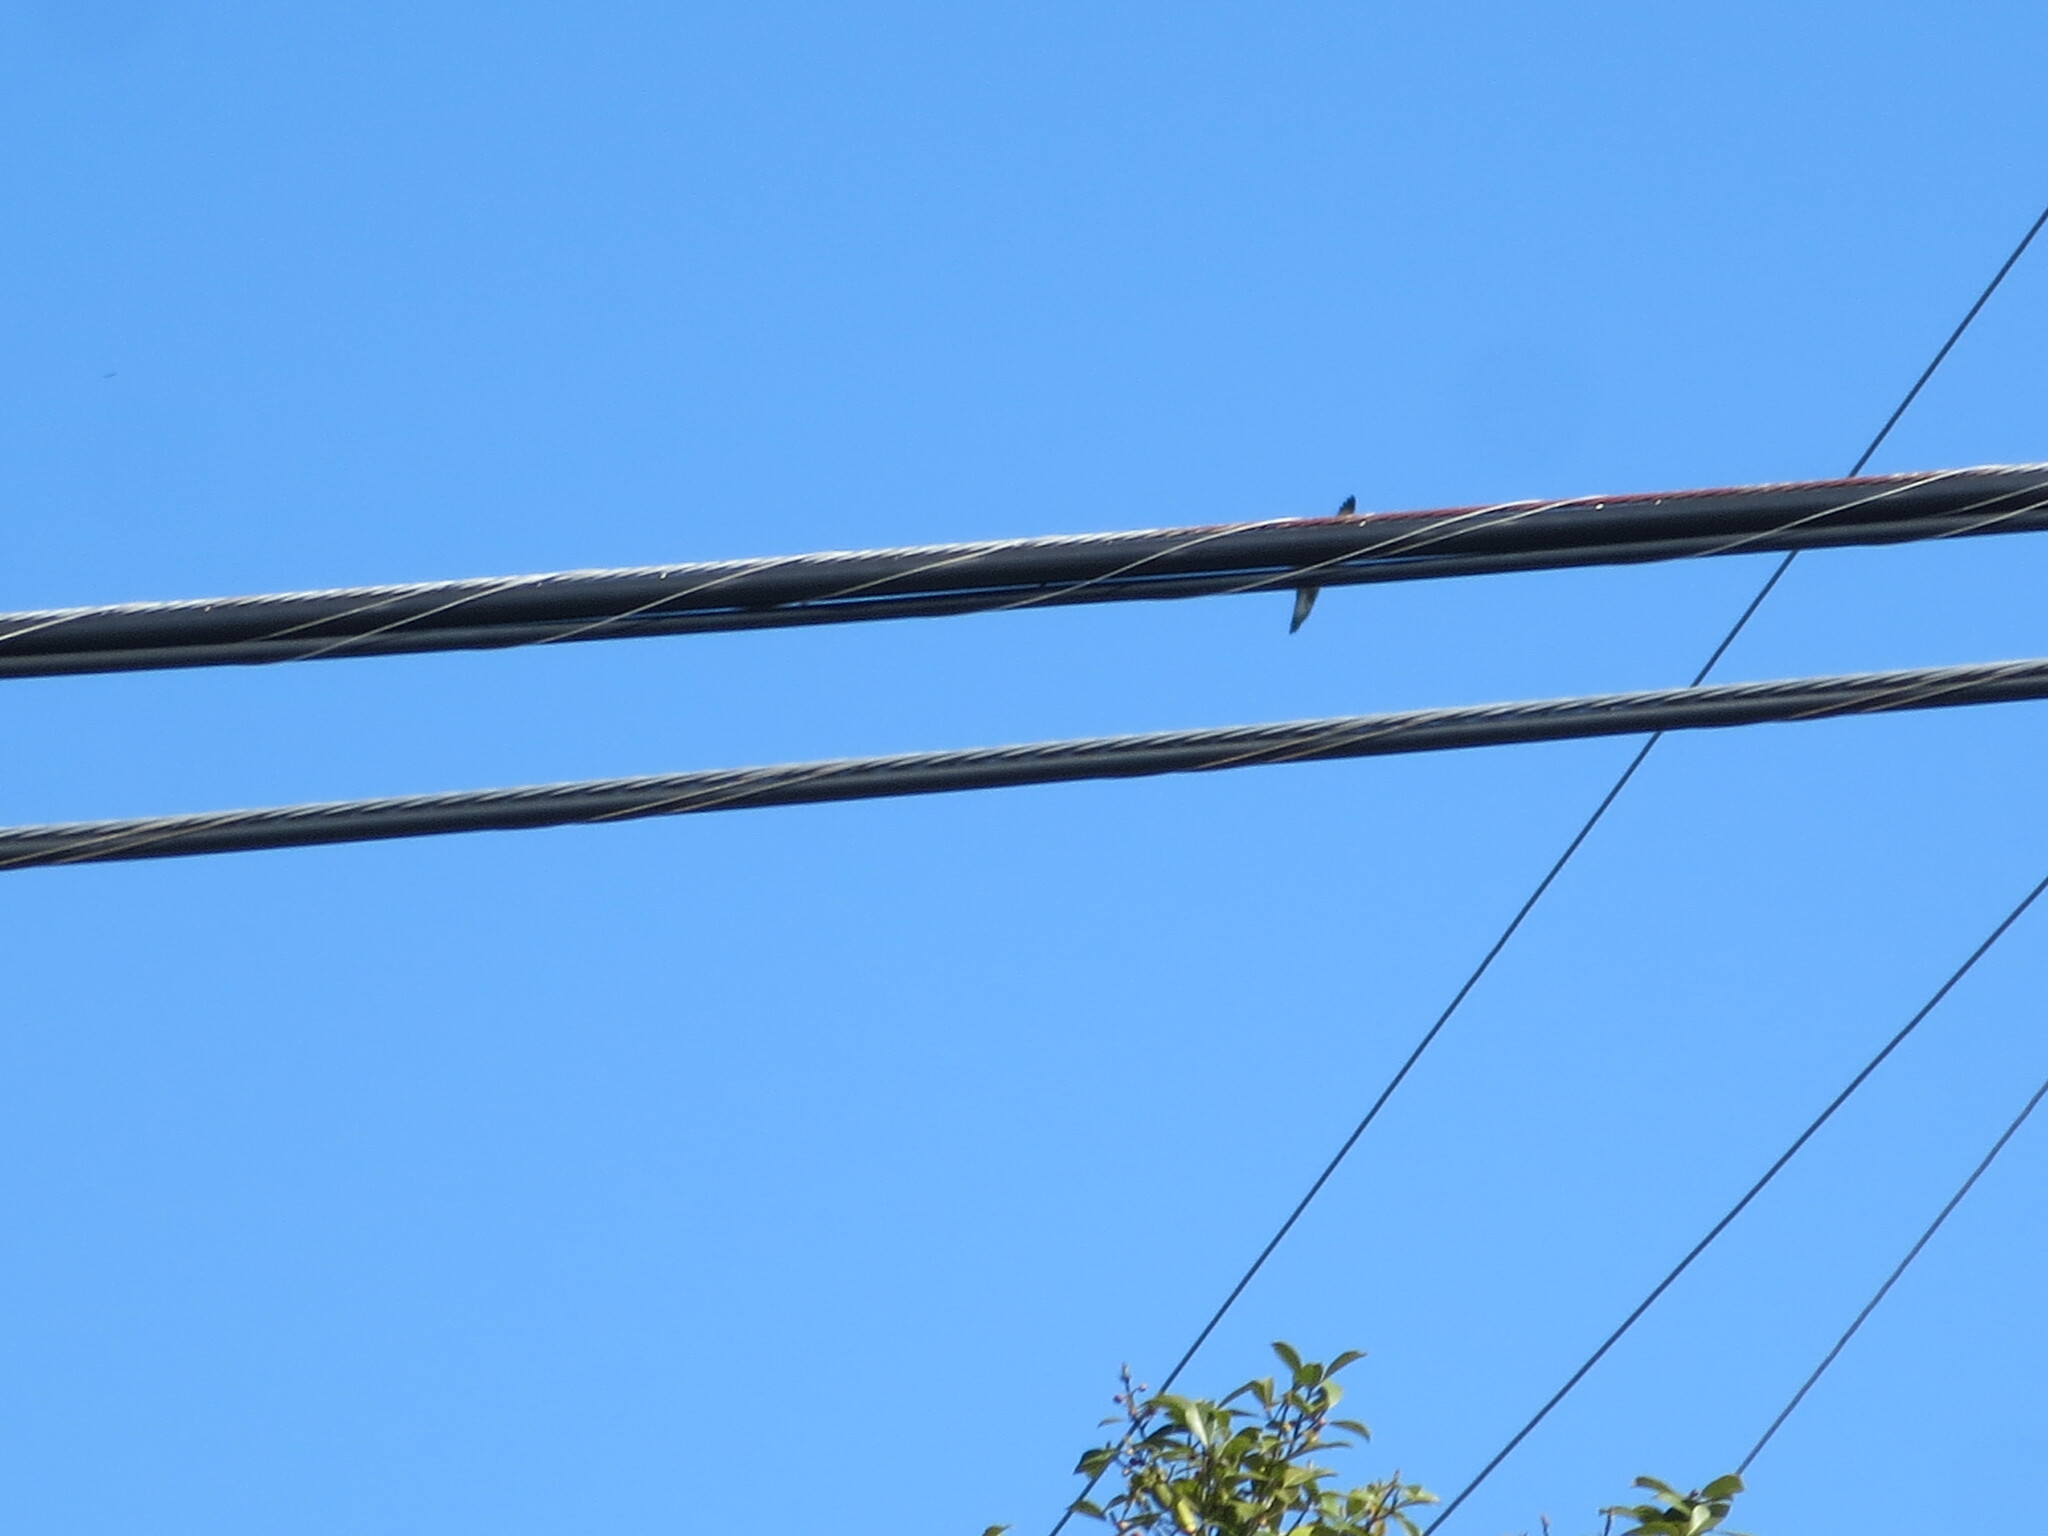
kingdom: Animalia
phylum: Chordata
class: Aves
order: Accipitriformes
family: Pandionidae
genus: Pandion
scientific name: Pandion haliaetus
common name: Osprey
